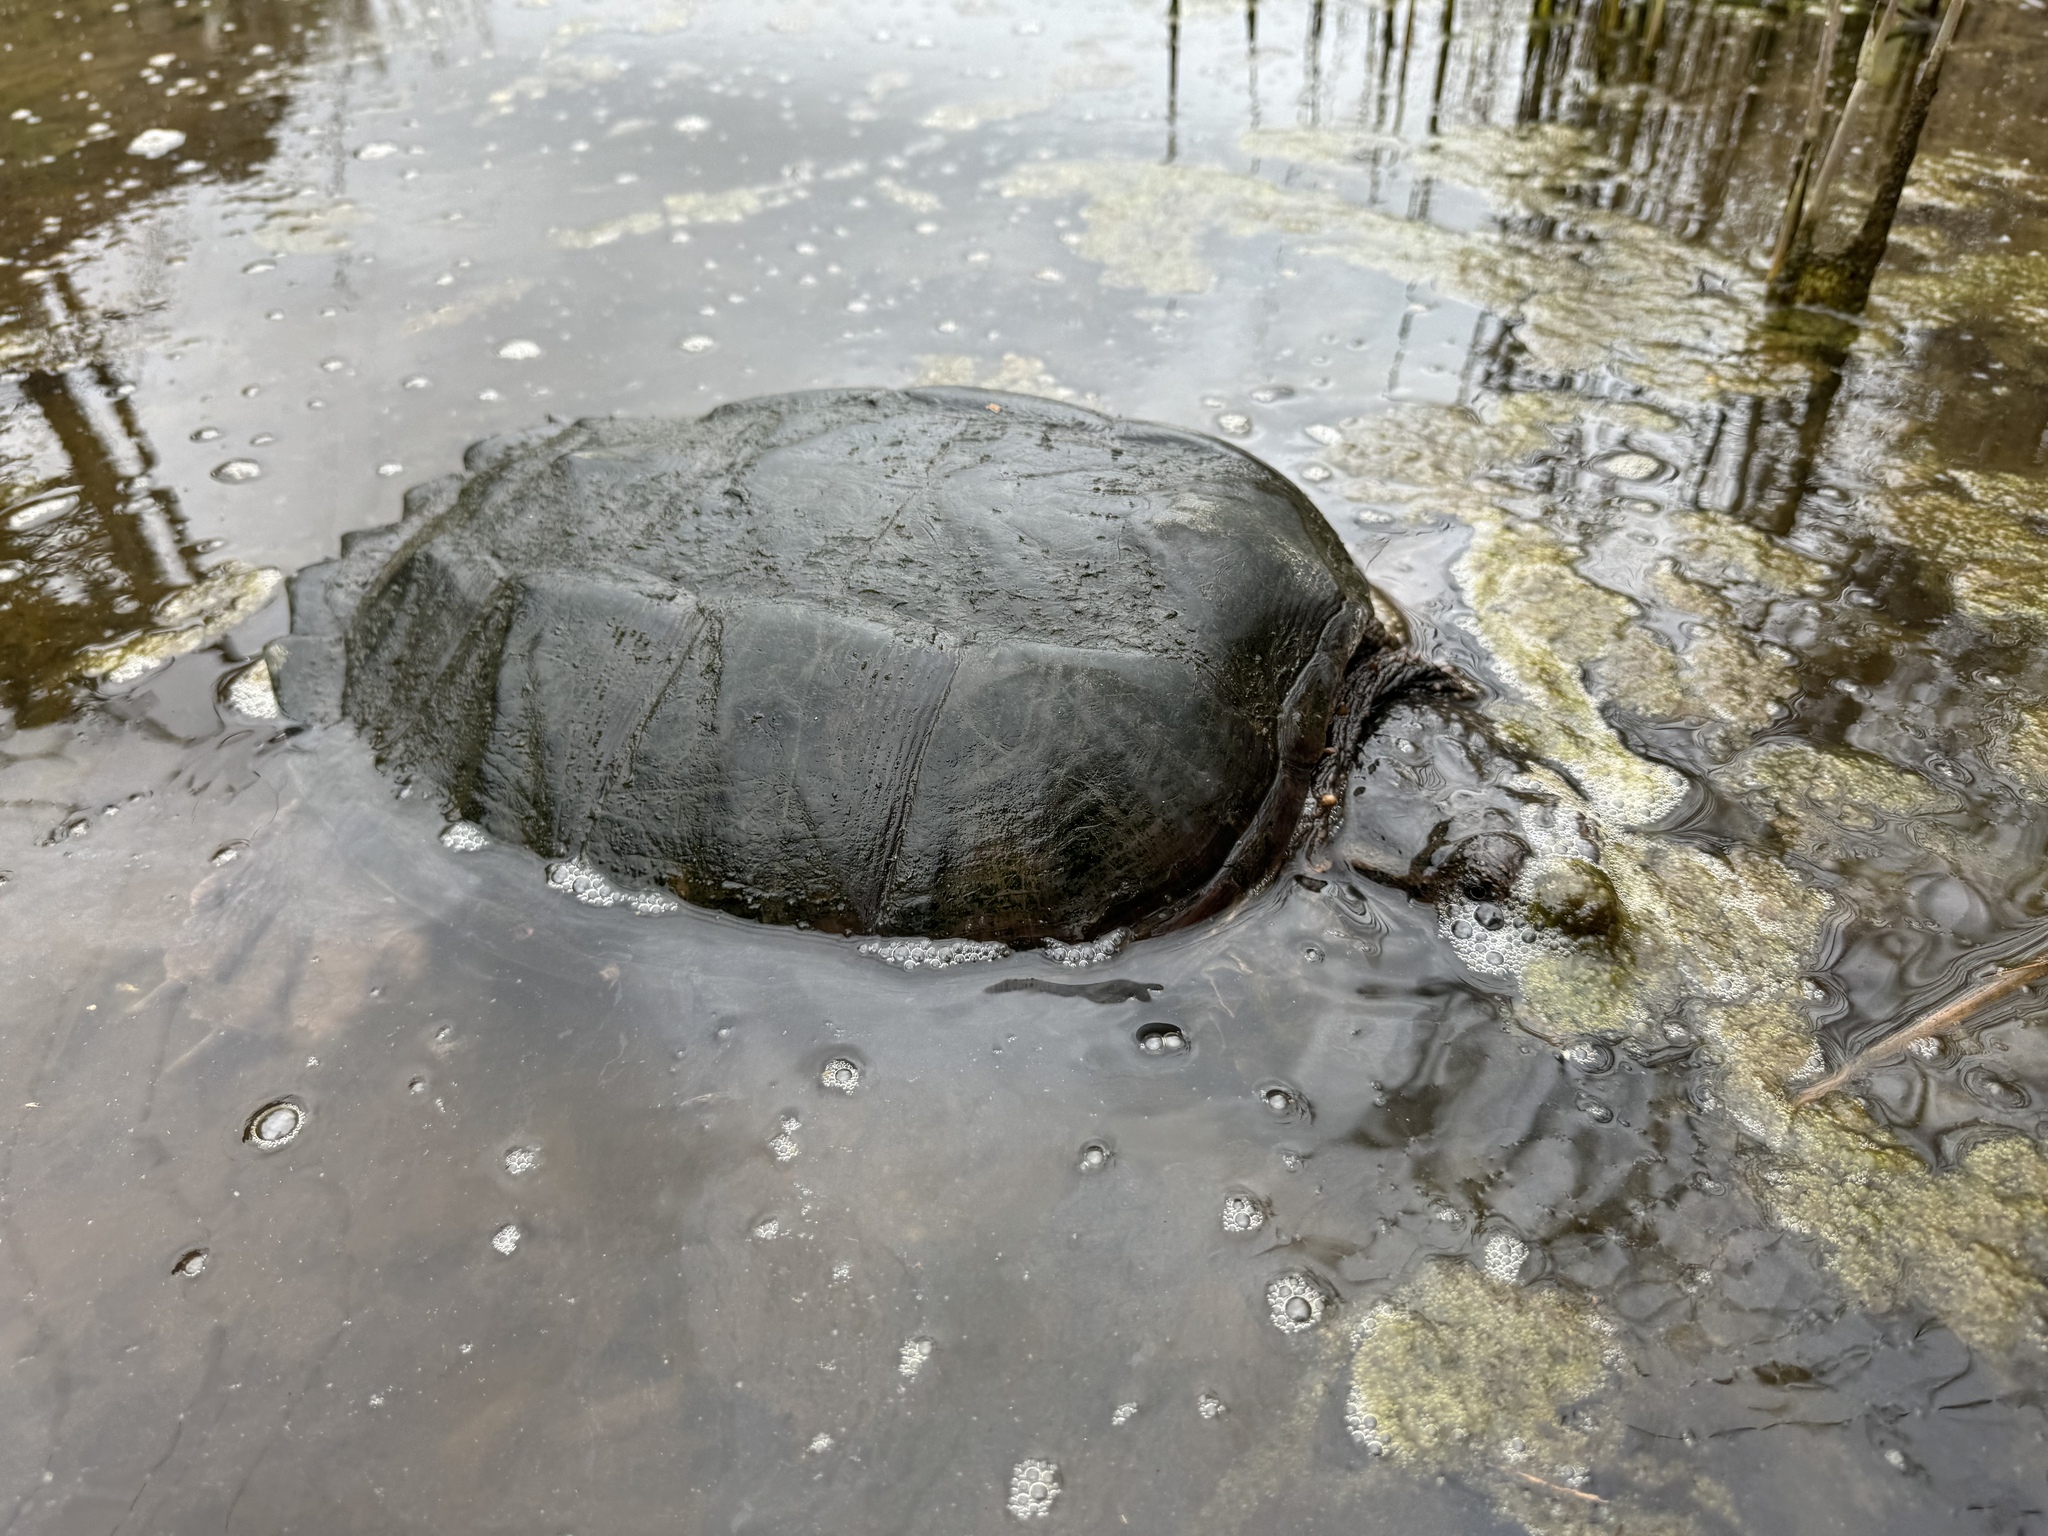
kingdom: Animalia
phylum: Chordata
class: Testudines
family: Chelydridae
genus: Chelydra
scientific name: Chelydra serpentina
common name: Common snapping turtle
